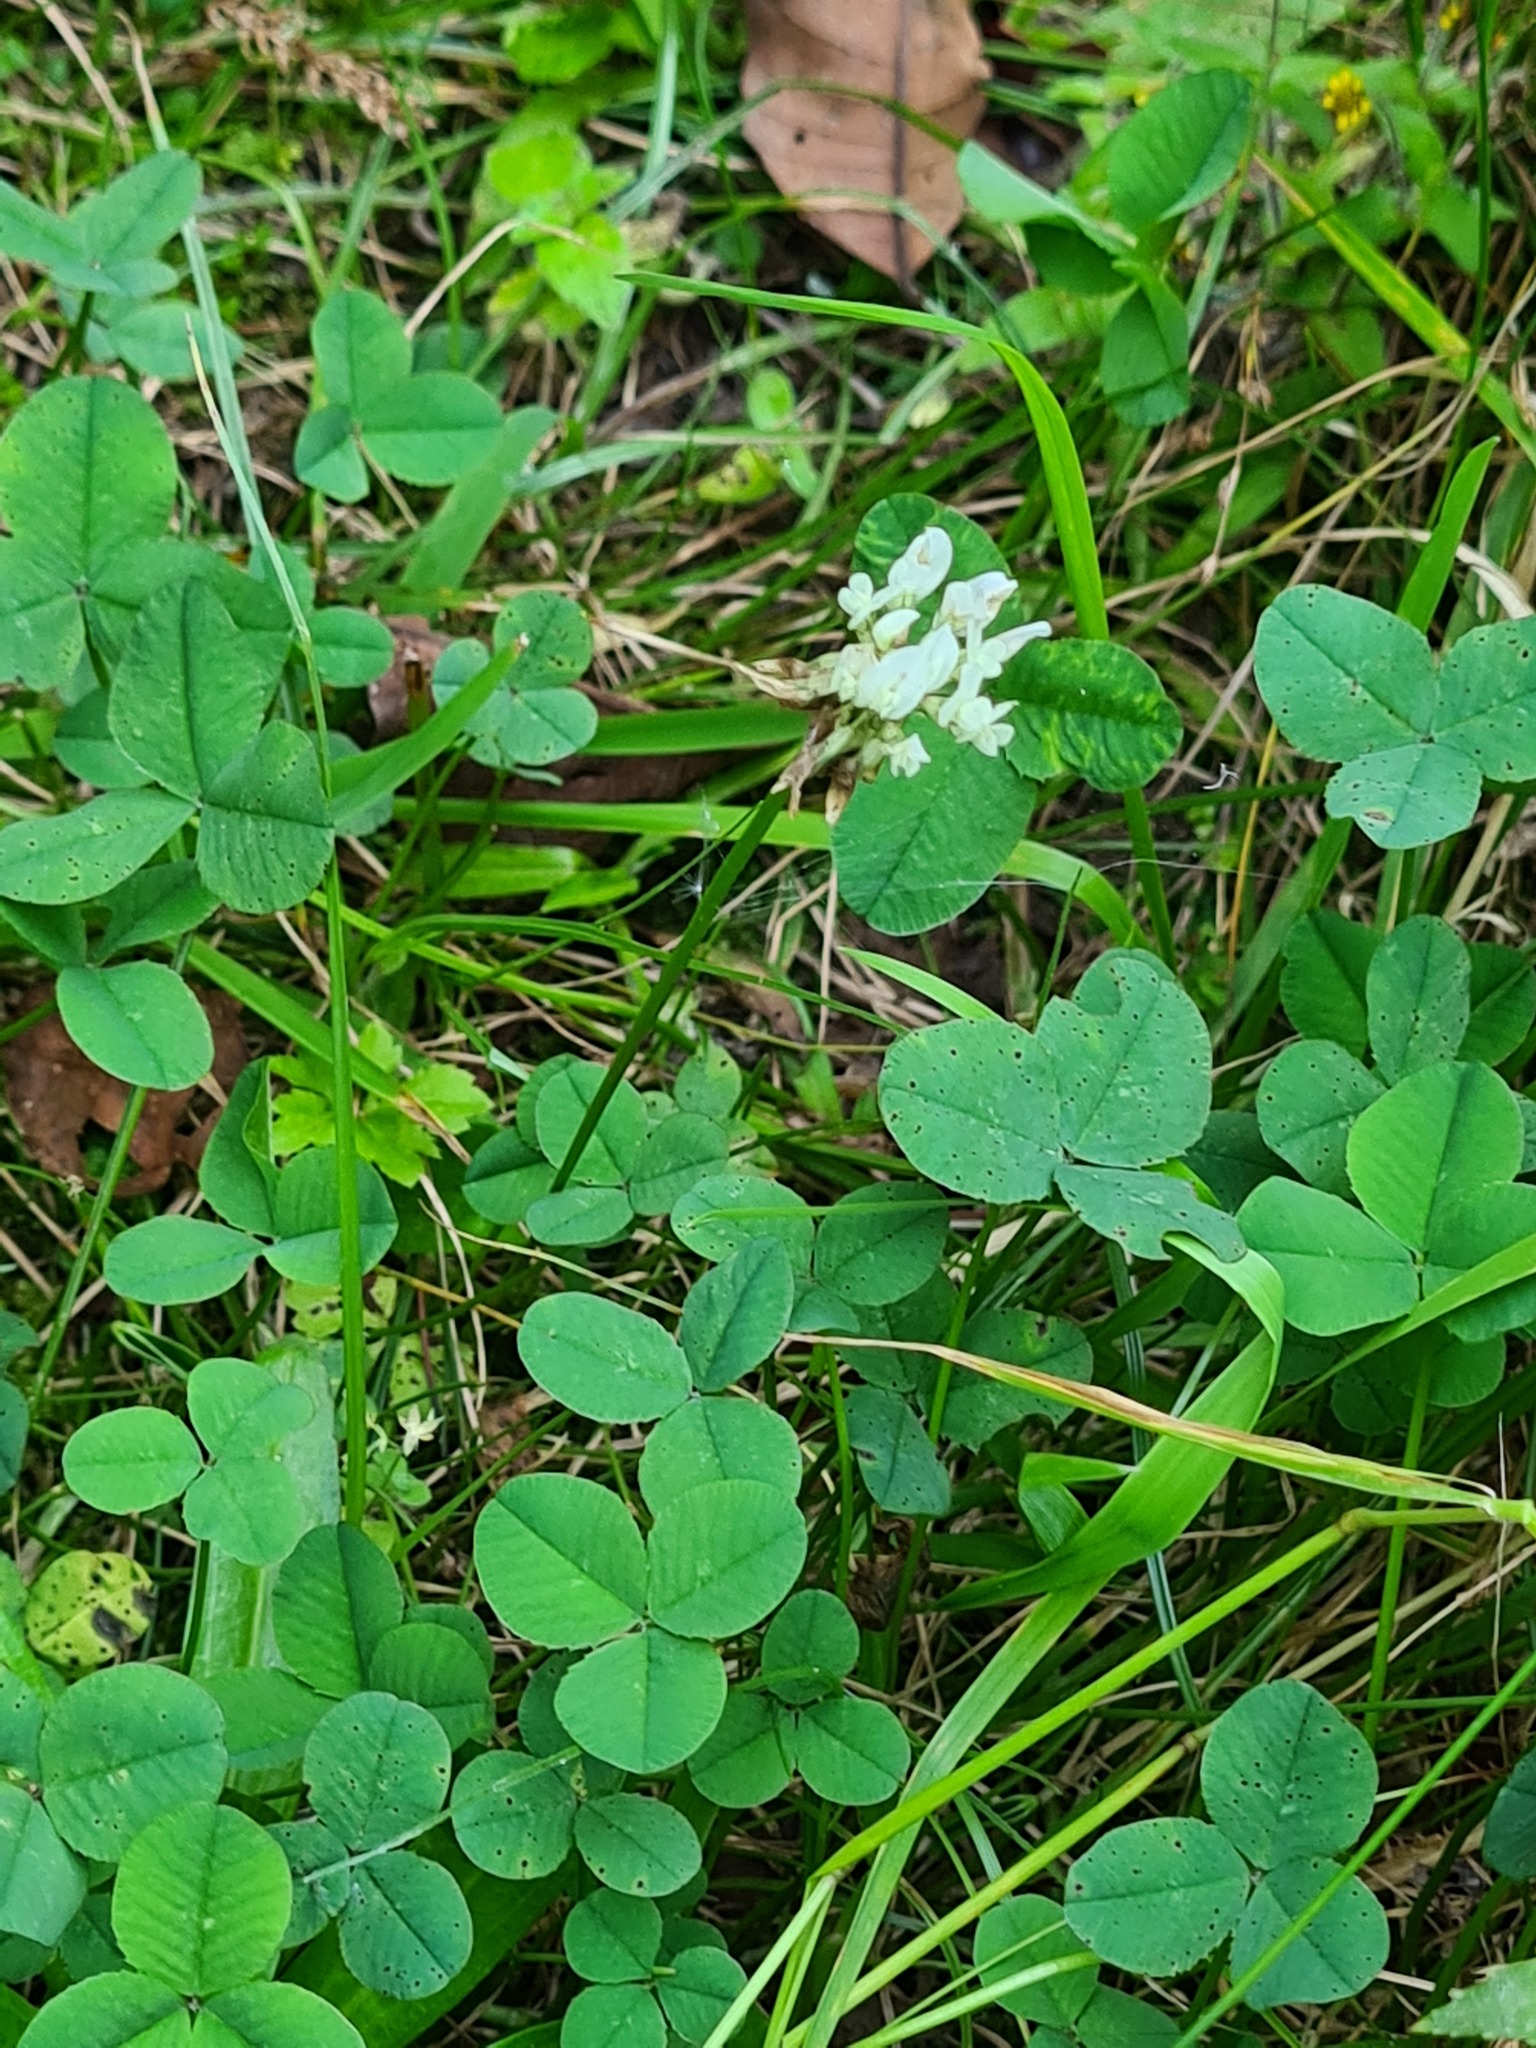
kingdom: Plantae
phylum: Tracheophyta
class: Magnoliopsida
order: Fabales
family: Fabaceae
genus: Trifolium
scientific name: Trifolium repens
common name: White clover
